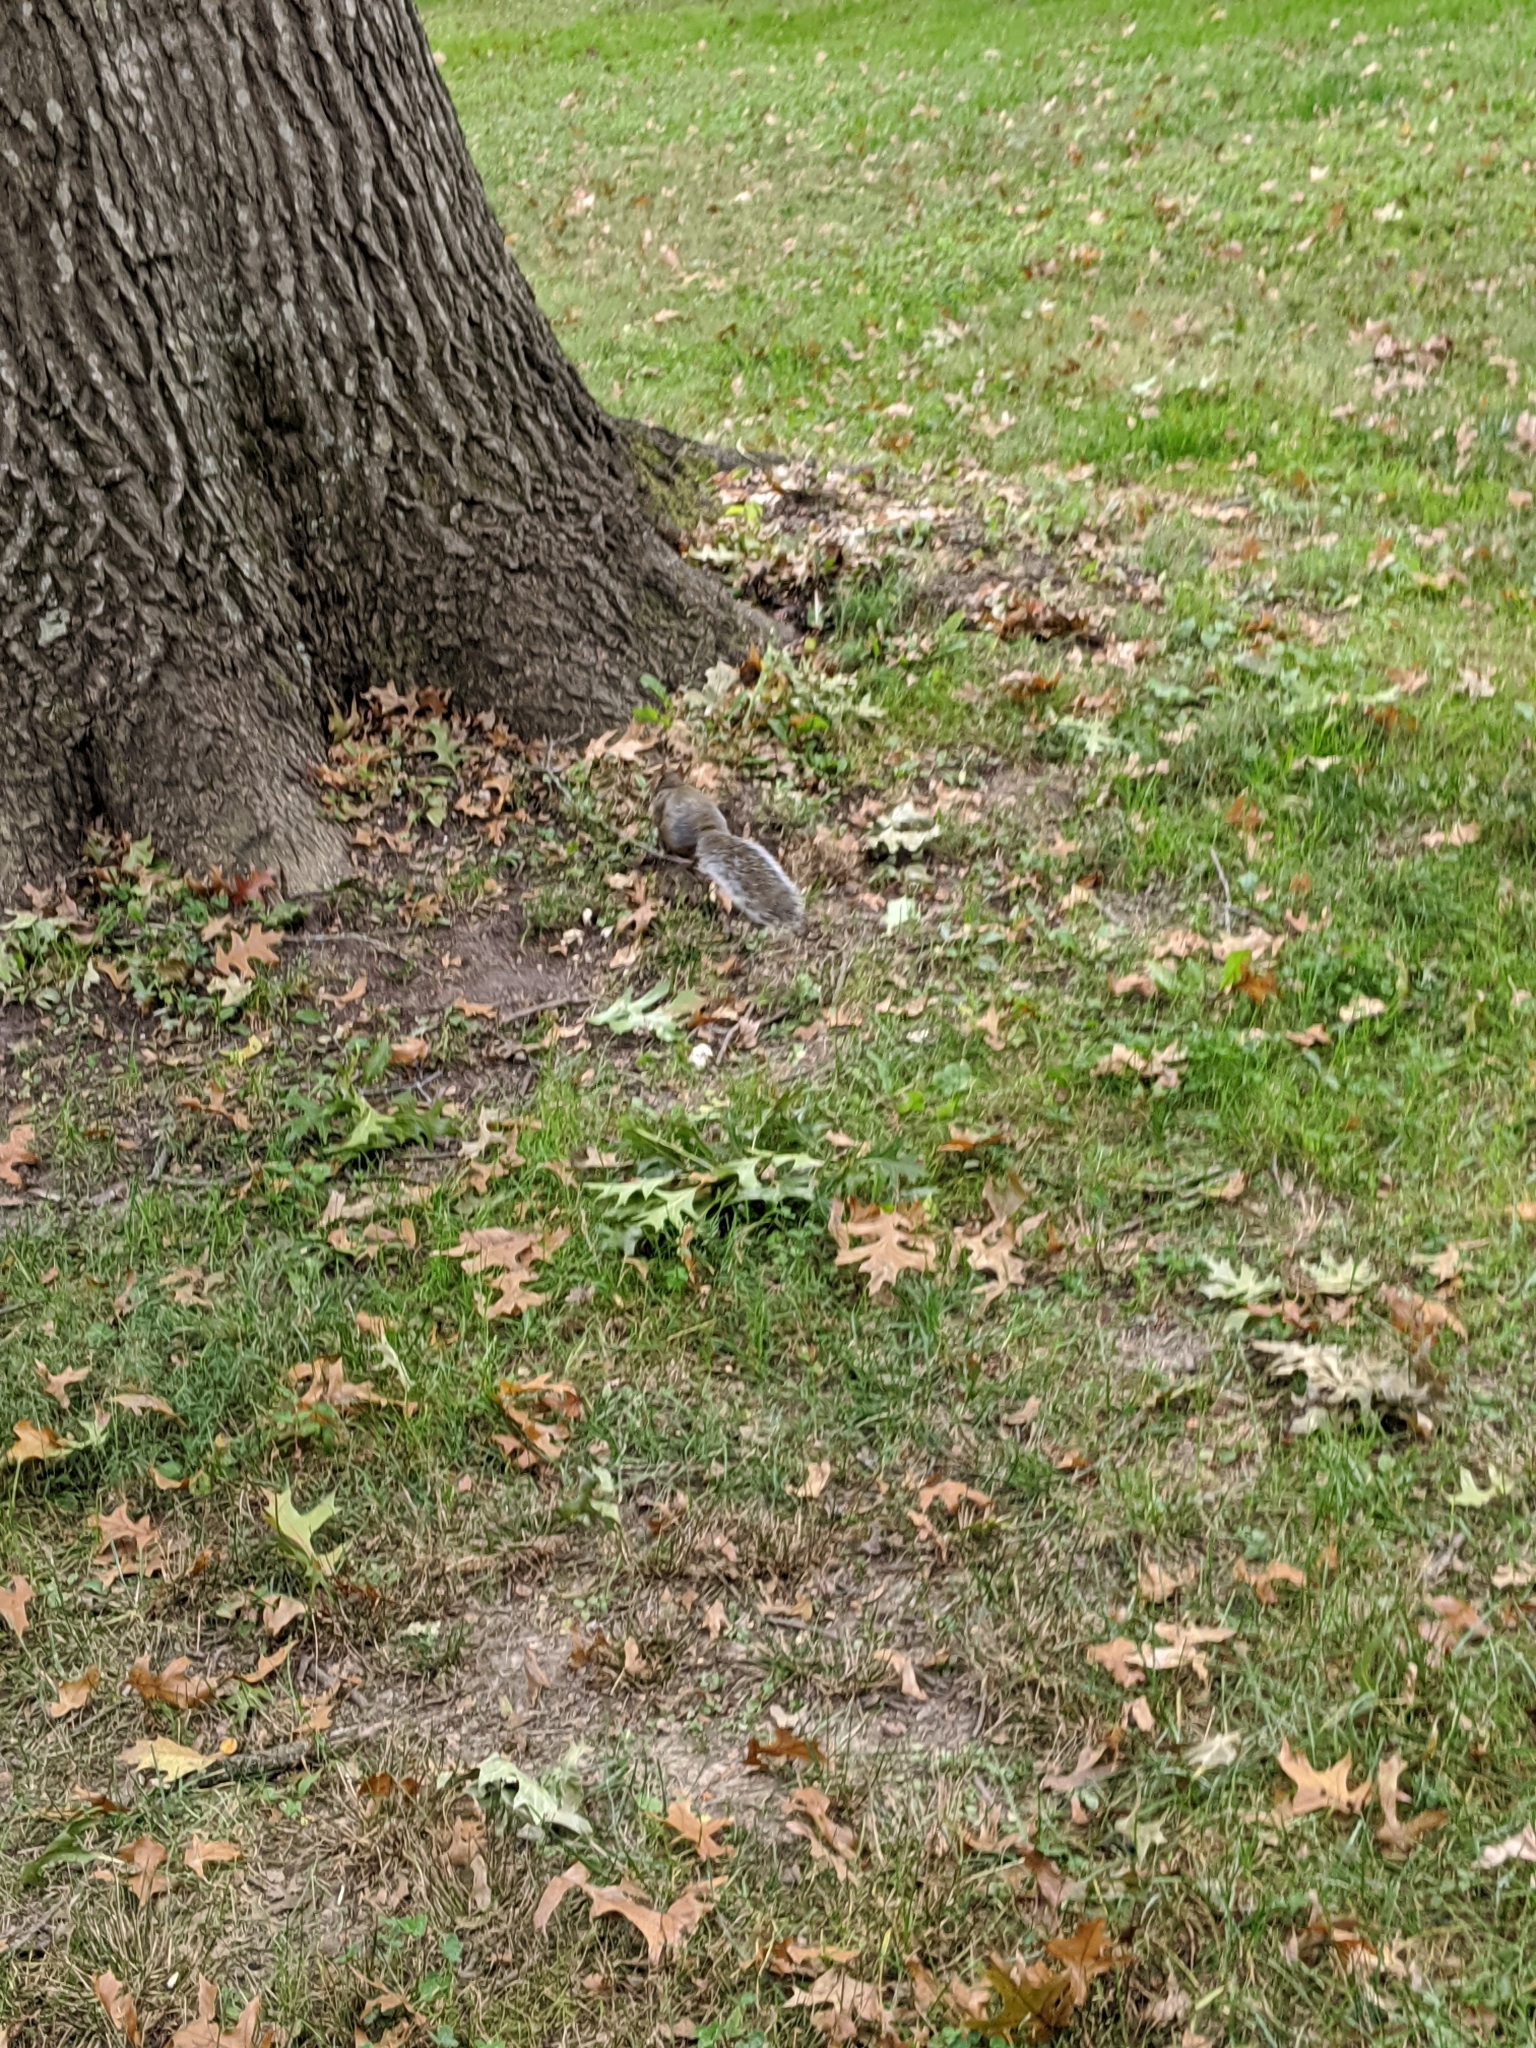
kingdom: Animalia
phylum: Chordata
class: Mammalia
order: Rodentia
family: Sciuridae
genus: Sciurus
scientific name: Sciurus carolinensis
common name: Eastern gray squirrel
